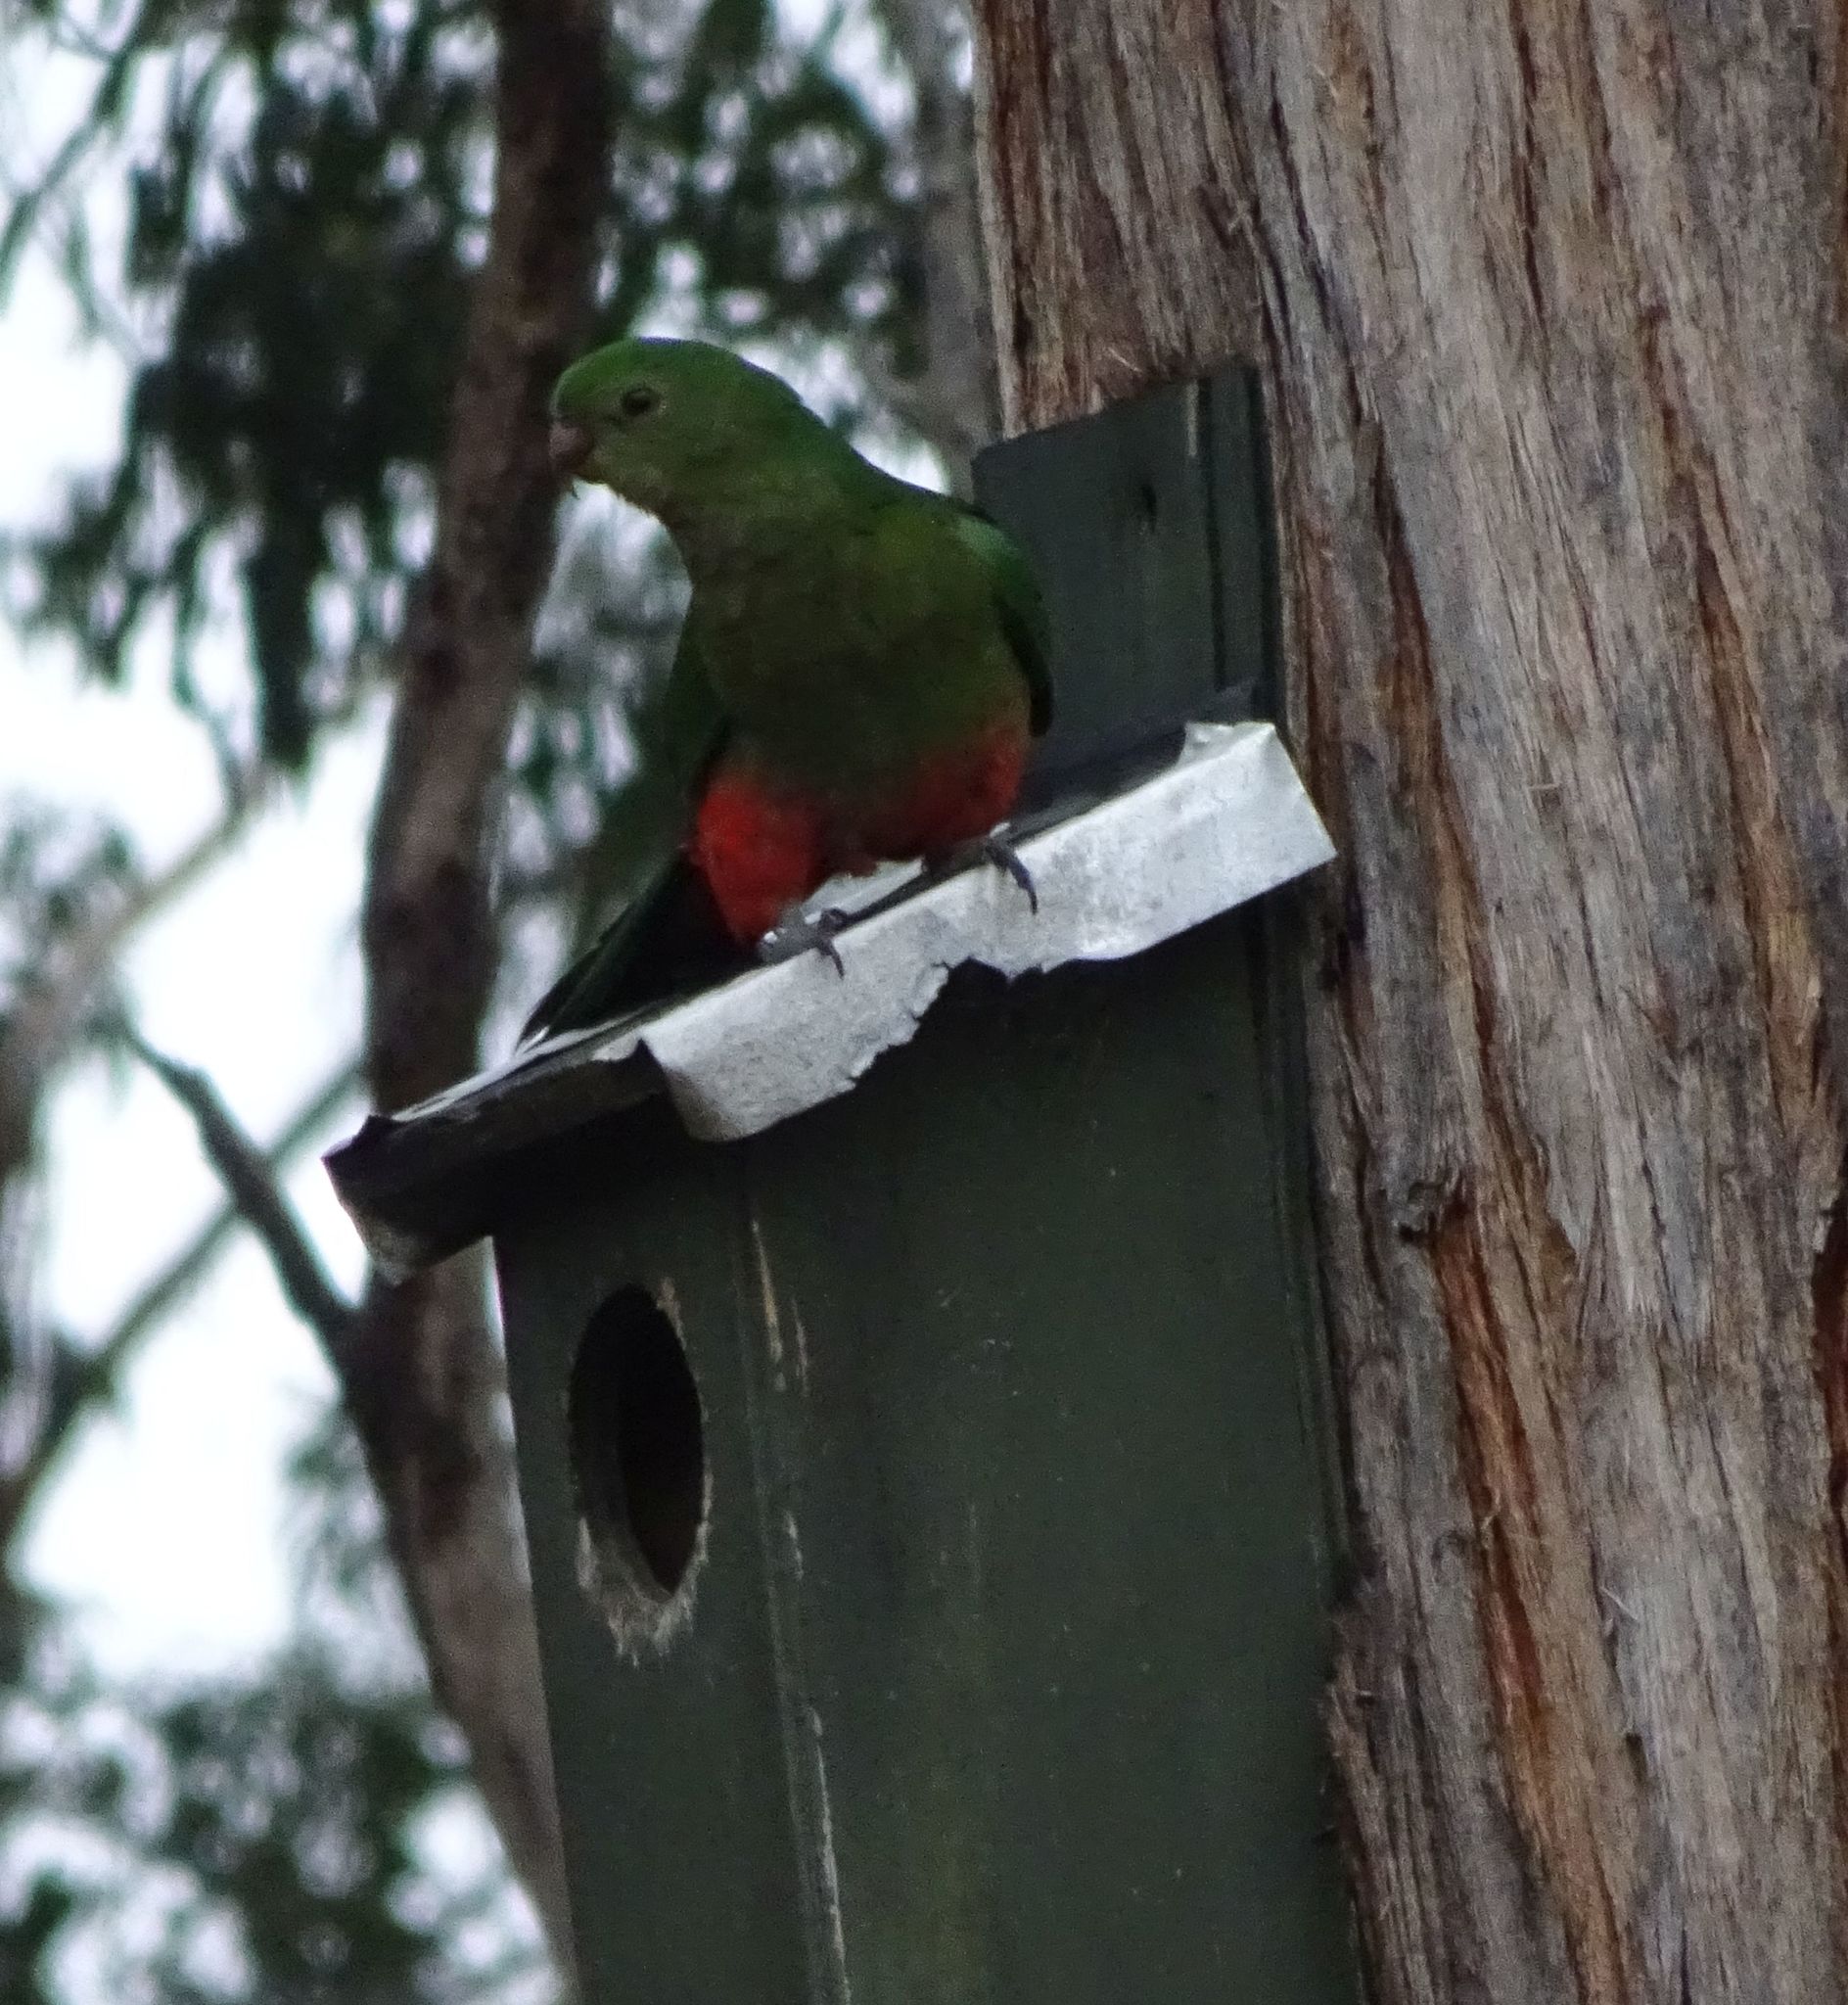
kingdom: Animalia
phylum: Chordata
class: Aves
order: Psittaciformes
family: Psittacidae
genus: Alisterus
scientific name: Alisterus scapularis
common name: Australian king parrot
